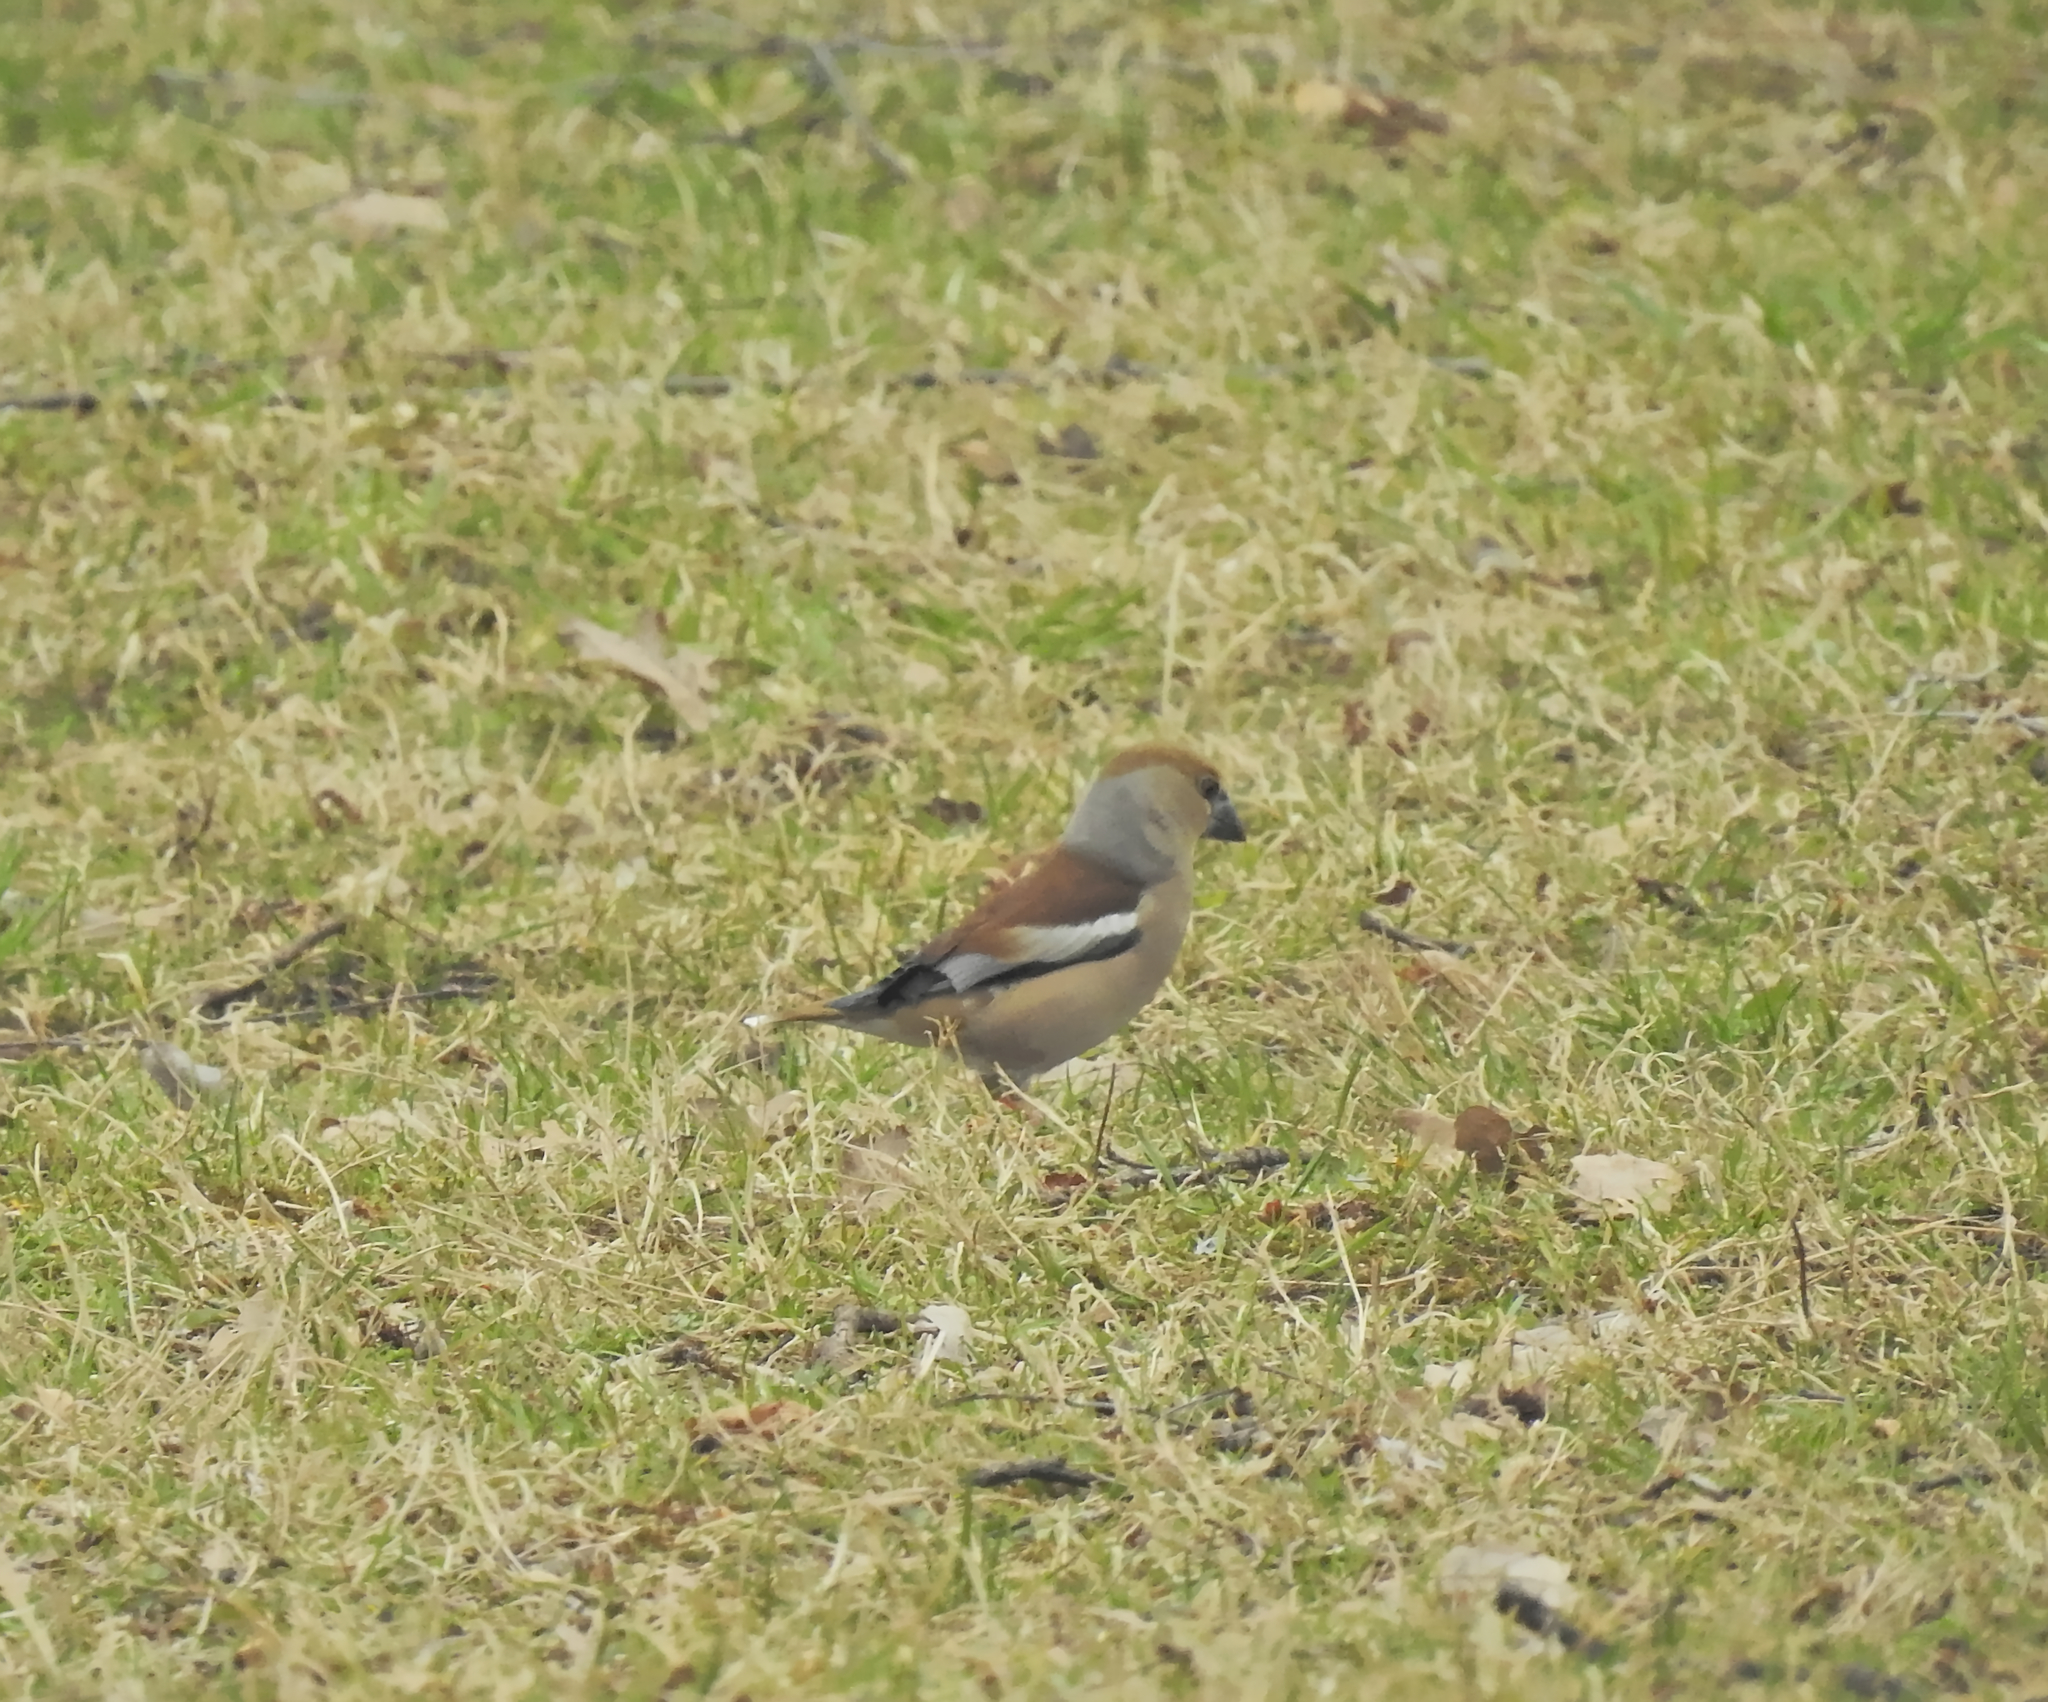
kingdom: Animalia
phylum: Chordata
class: Aves
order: Passeriformes
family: Fringillidae
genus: Coccothraustes
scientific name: Coccothraustes coccothraustes
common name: Hawfinch
